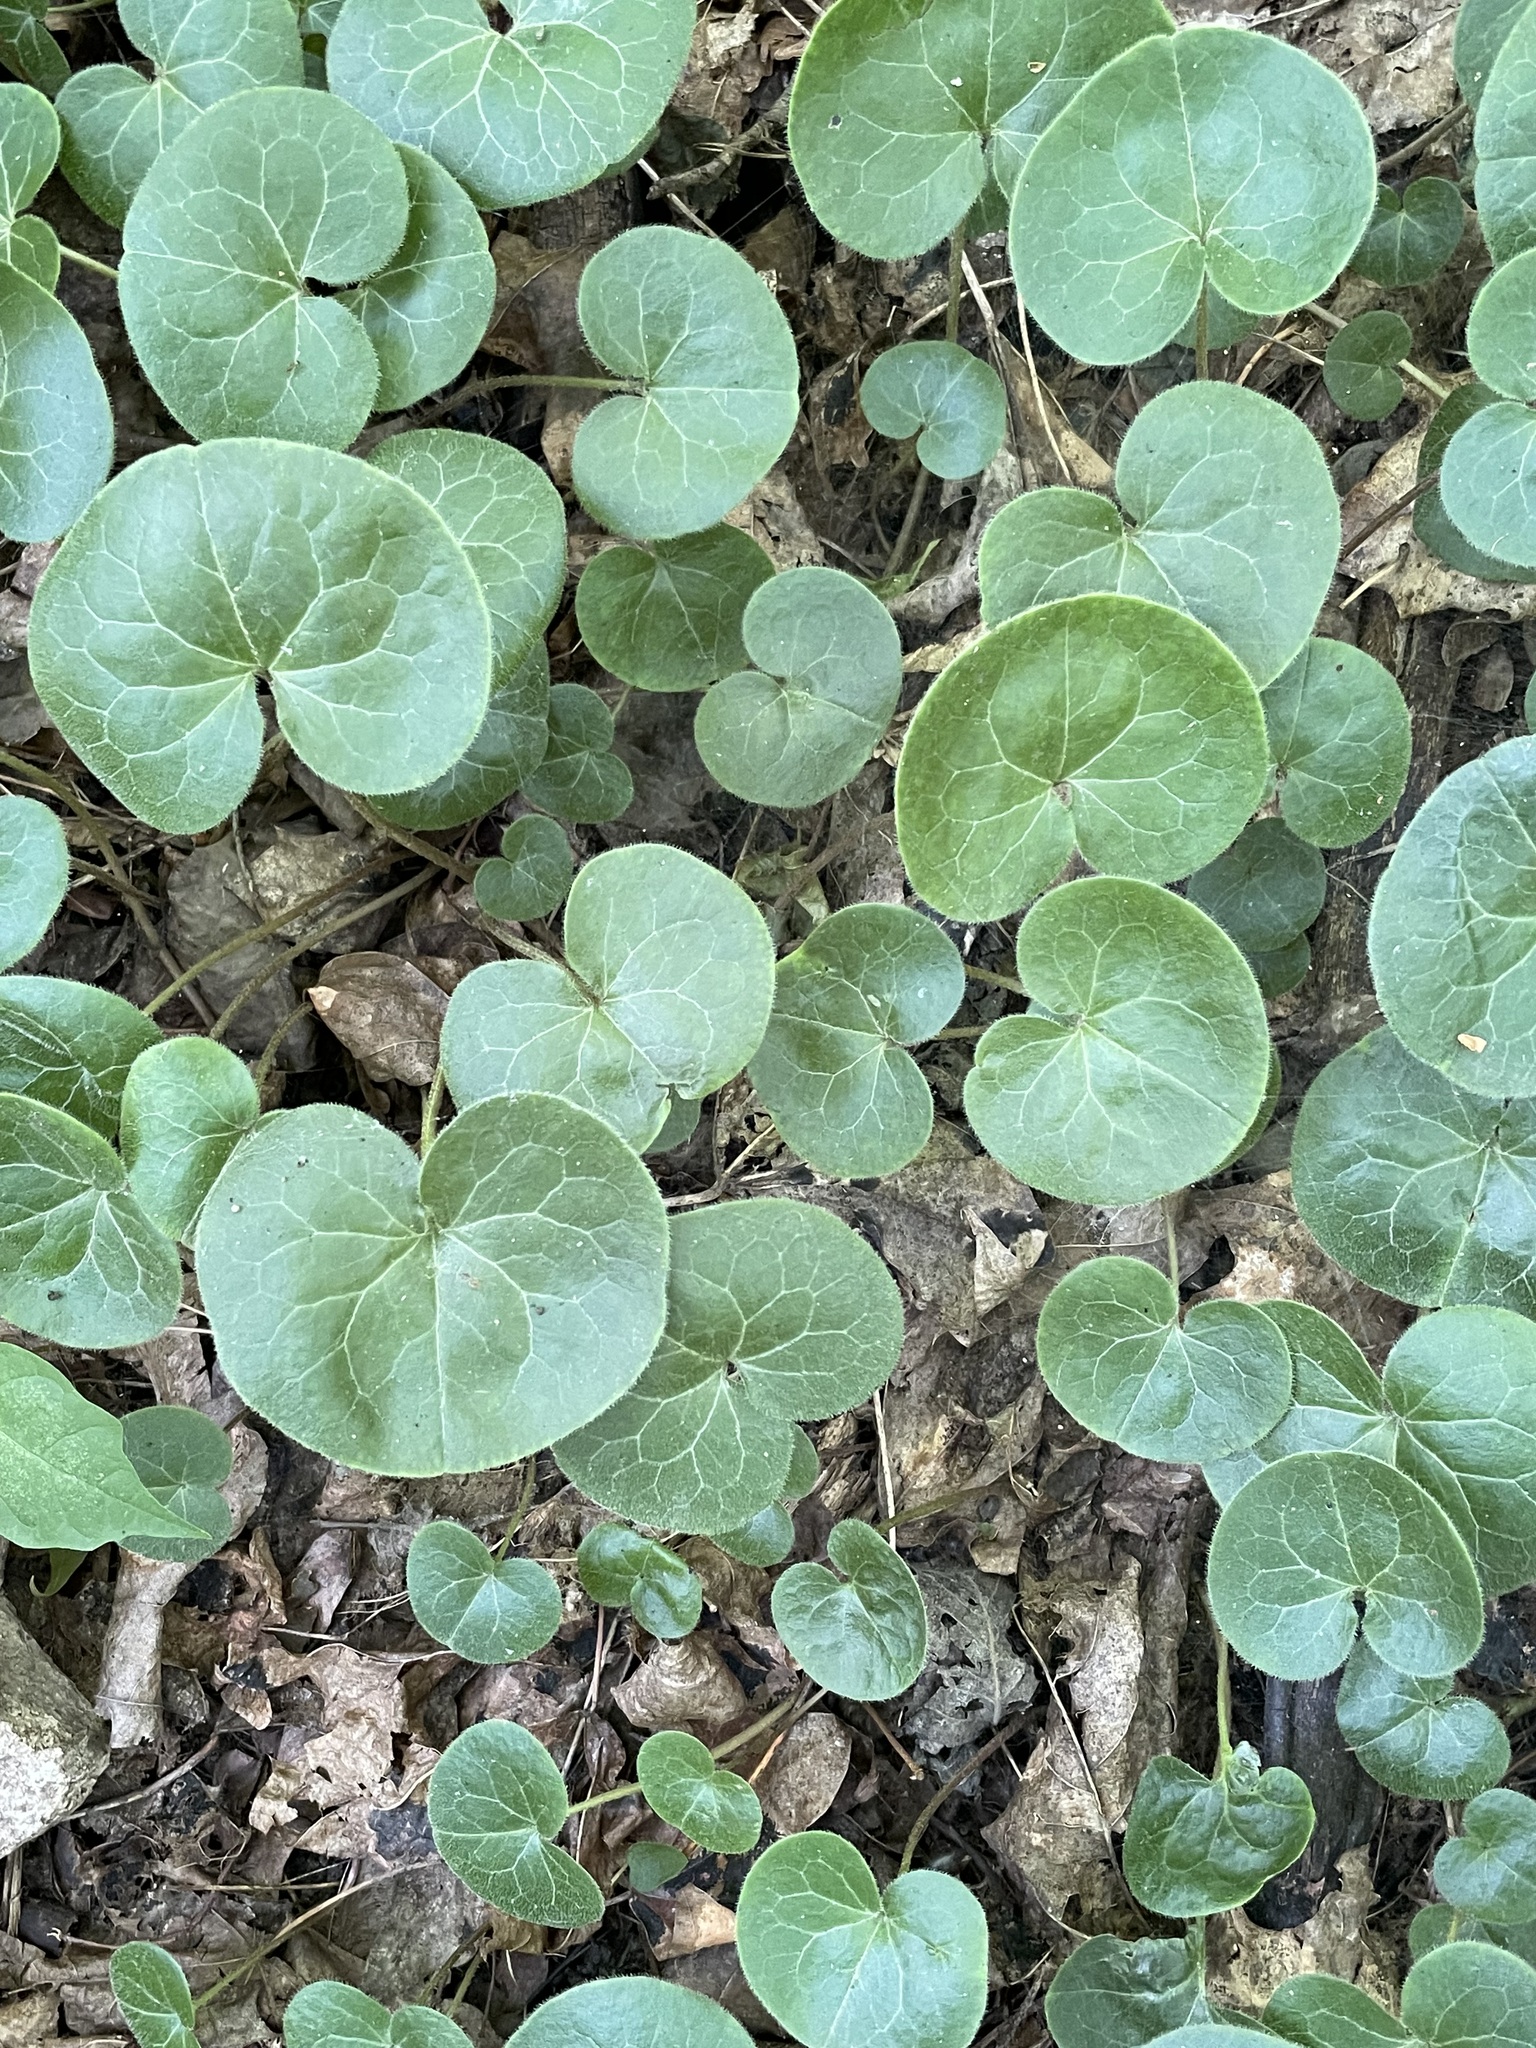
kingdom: Plantae
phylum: Tracheophyta
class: Magnoliopsida
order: Piperales
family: Aristolochiaceae
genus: Asarum
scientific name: Asarum europaeum
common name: Asarabacca
